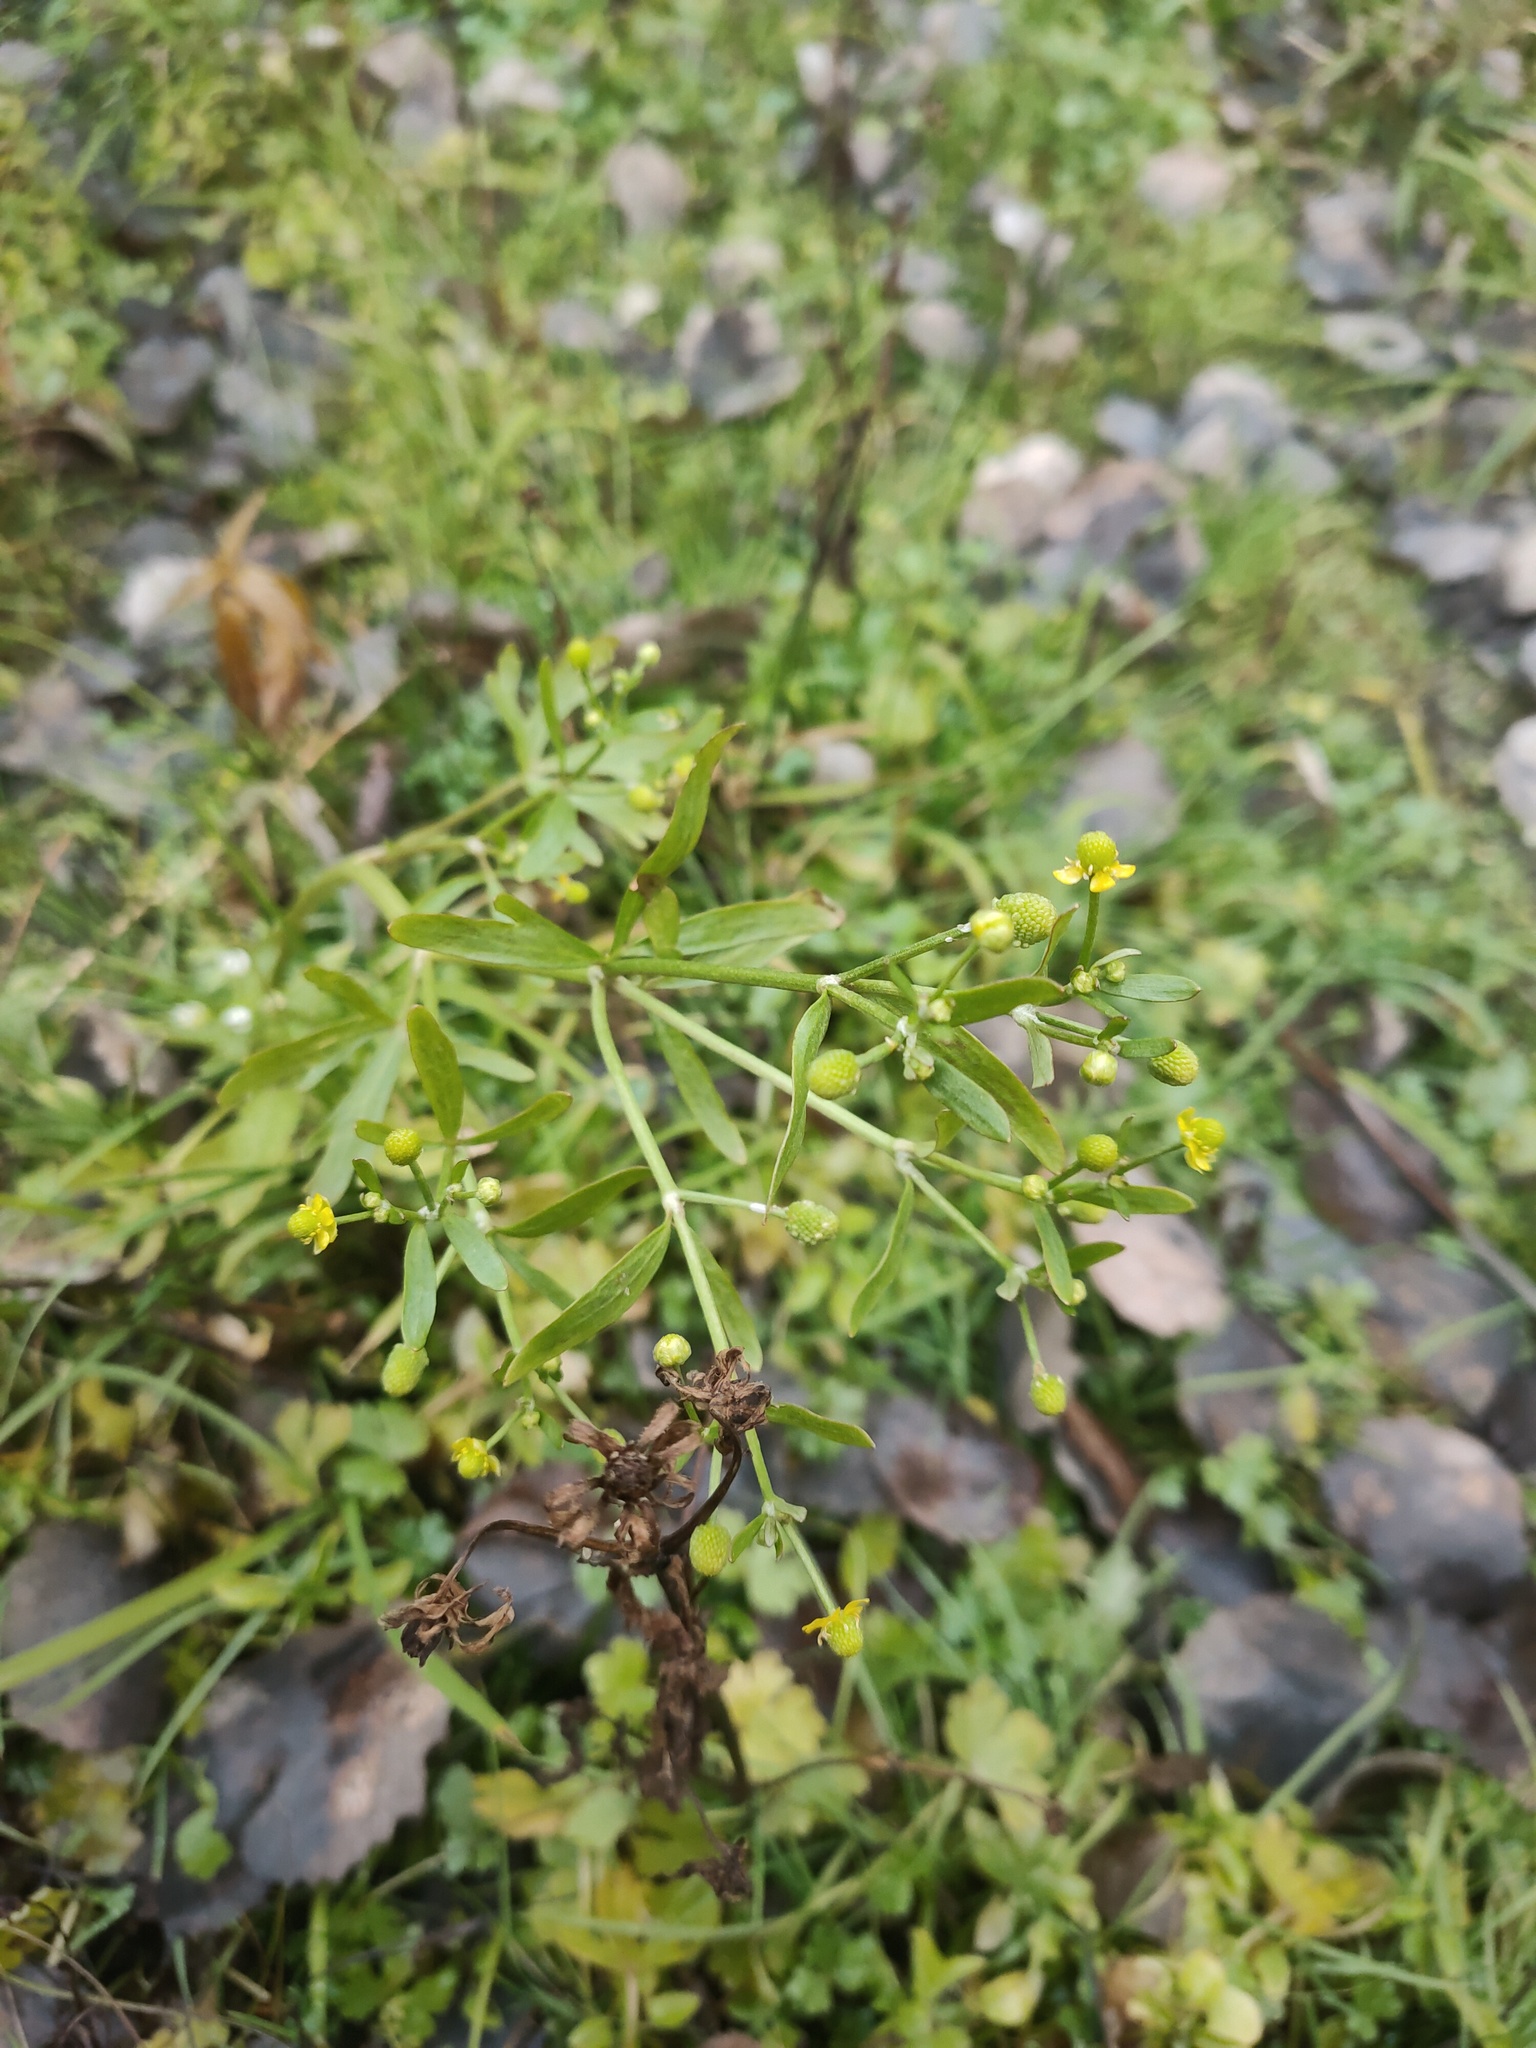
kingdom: Plantae
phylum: Tracheophyta
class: Magnoliopsida
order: Ranunculales
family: Ranunculaceae
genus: Ranunculus
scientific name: Ranunculus sceleratus
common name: Celery-leaved buttercup
